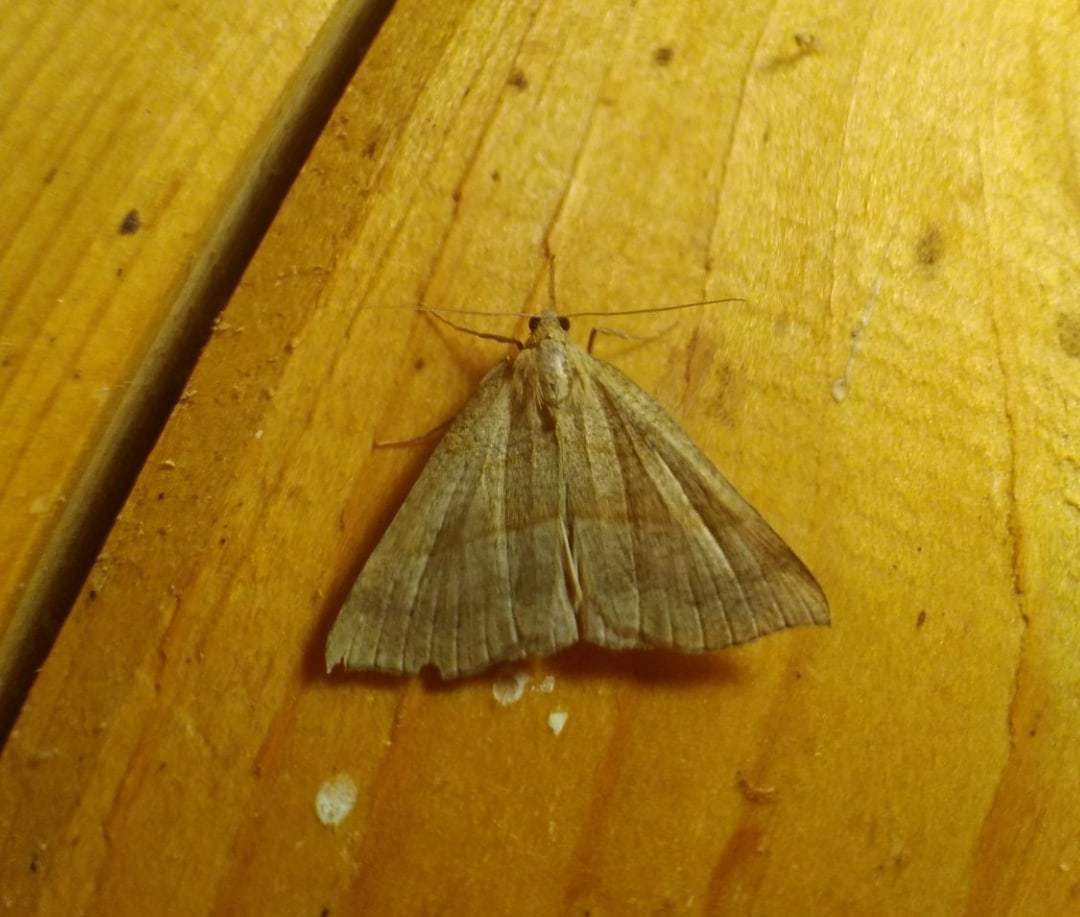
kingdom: Animalia
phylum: Arthropoda
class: Insecta
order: Lepidoptera
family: Erebidae
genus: Hypena
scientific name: Hypena proboscidalis
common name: Snout
